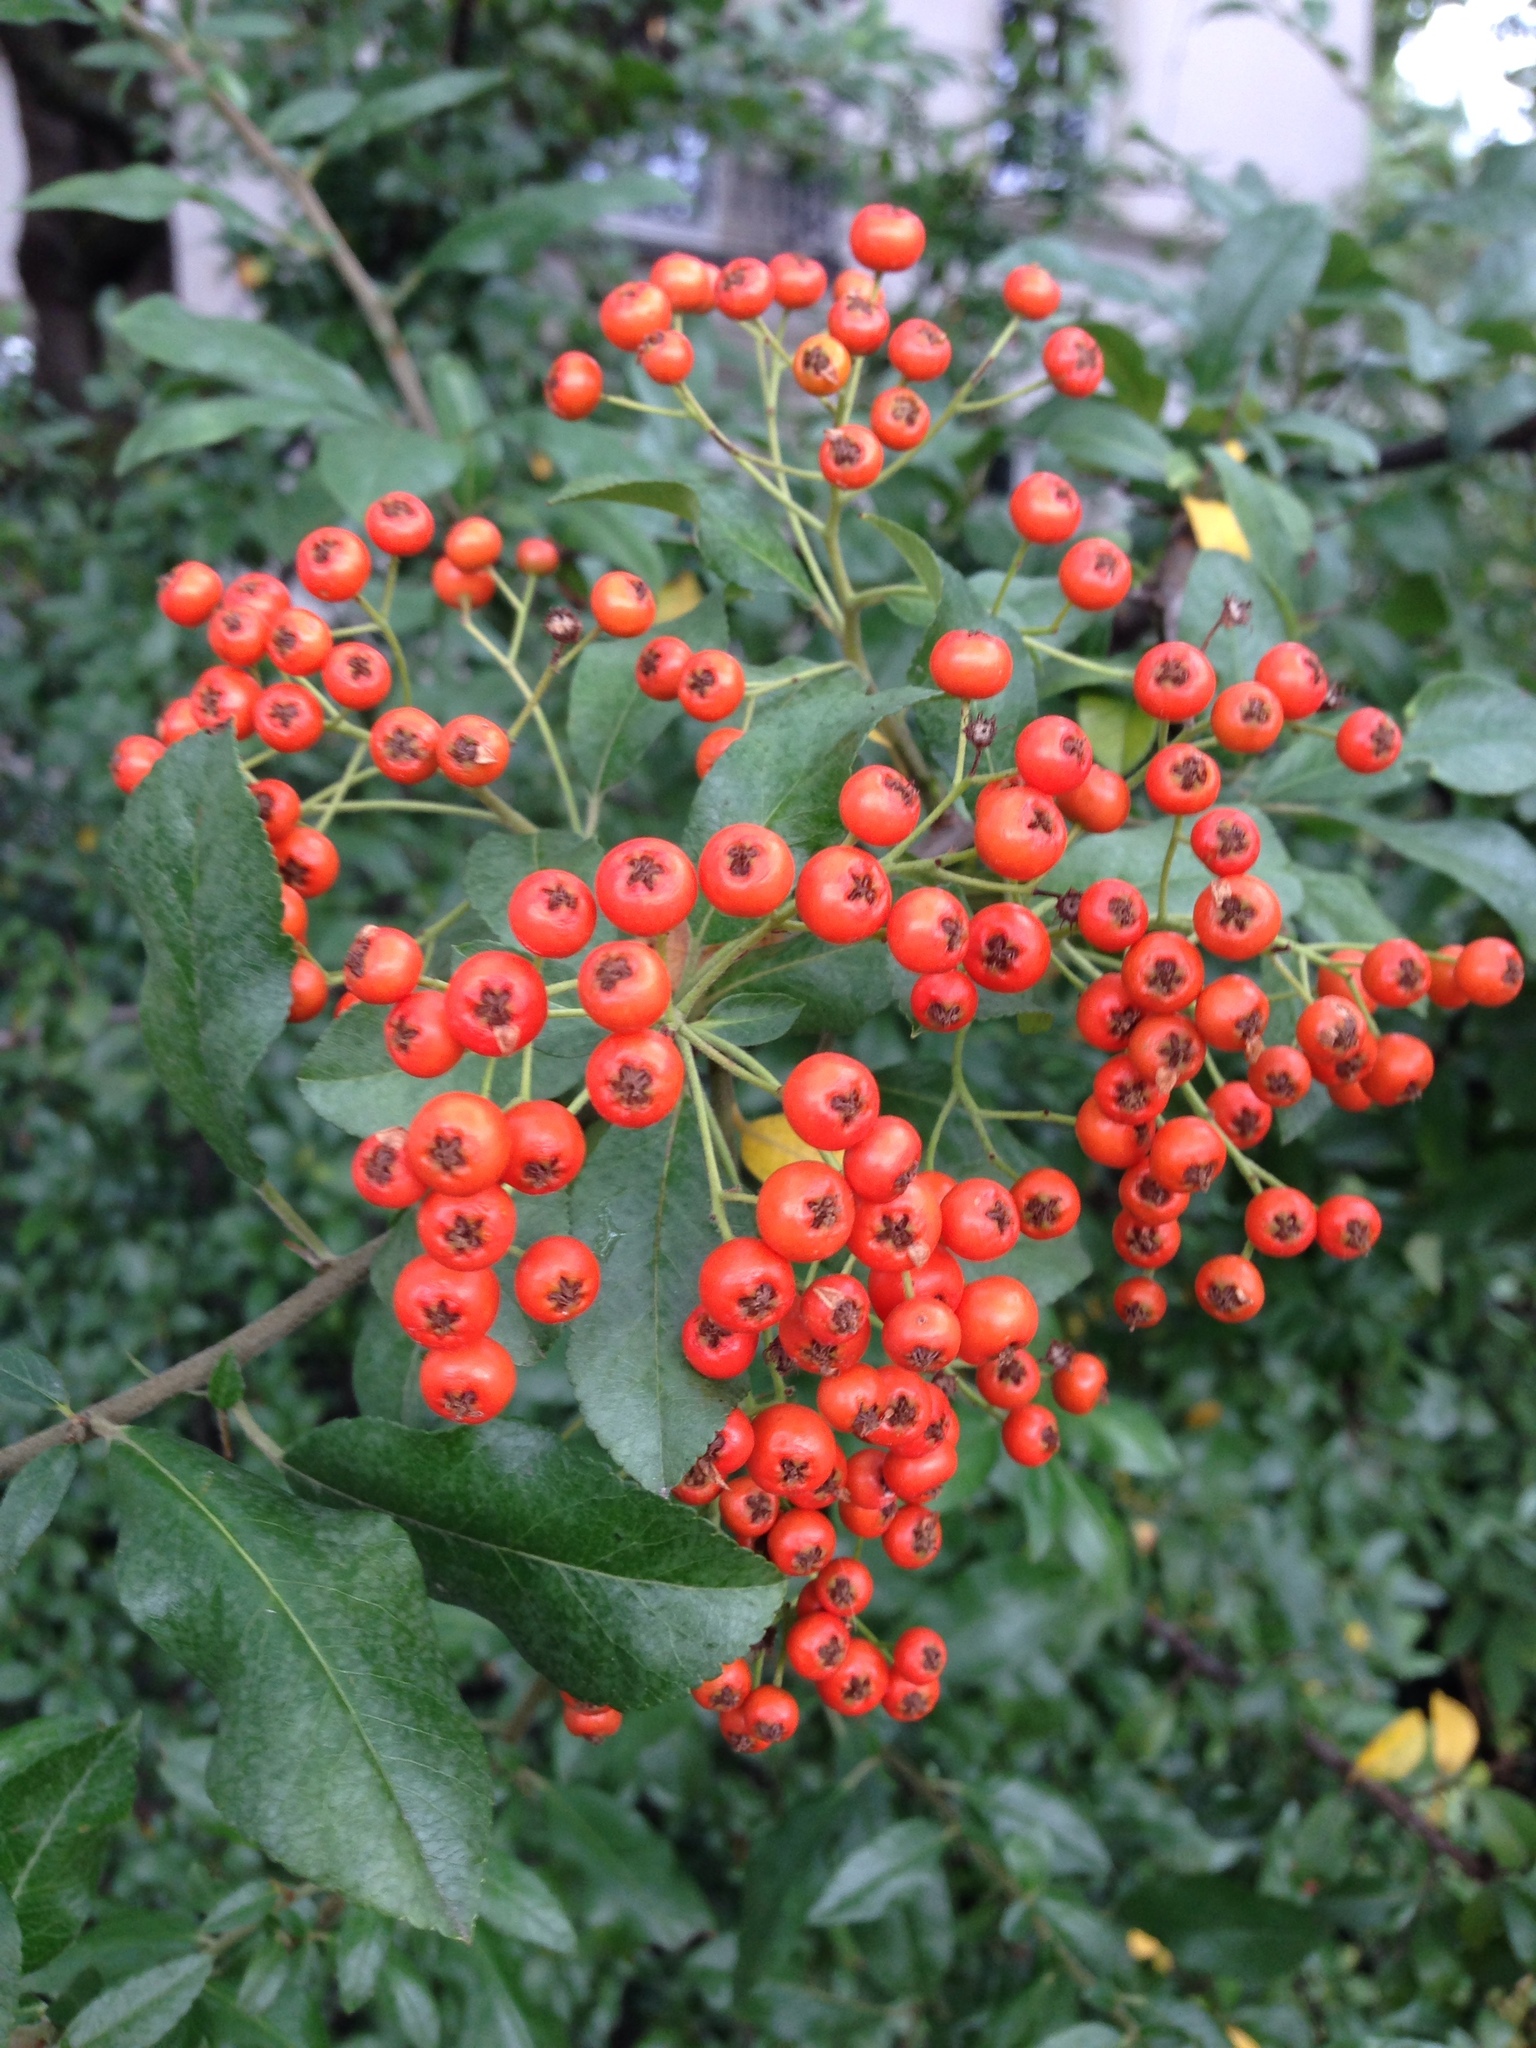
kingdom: Plantae
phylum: Tracheophyta
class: Magnoliopsida
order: Rosales
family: Rosaceae
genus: Pyracantha
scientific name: Pyracantha coccinea
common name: Firethorn
